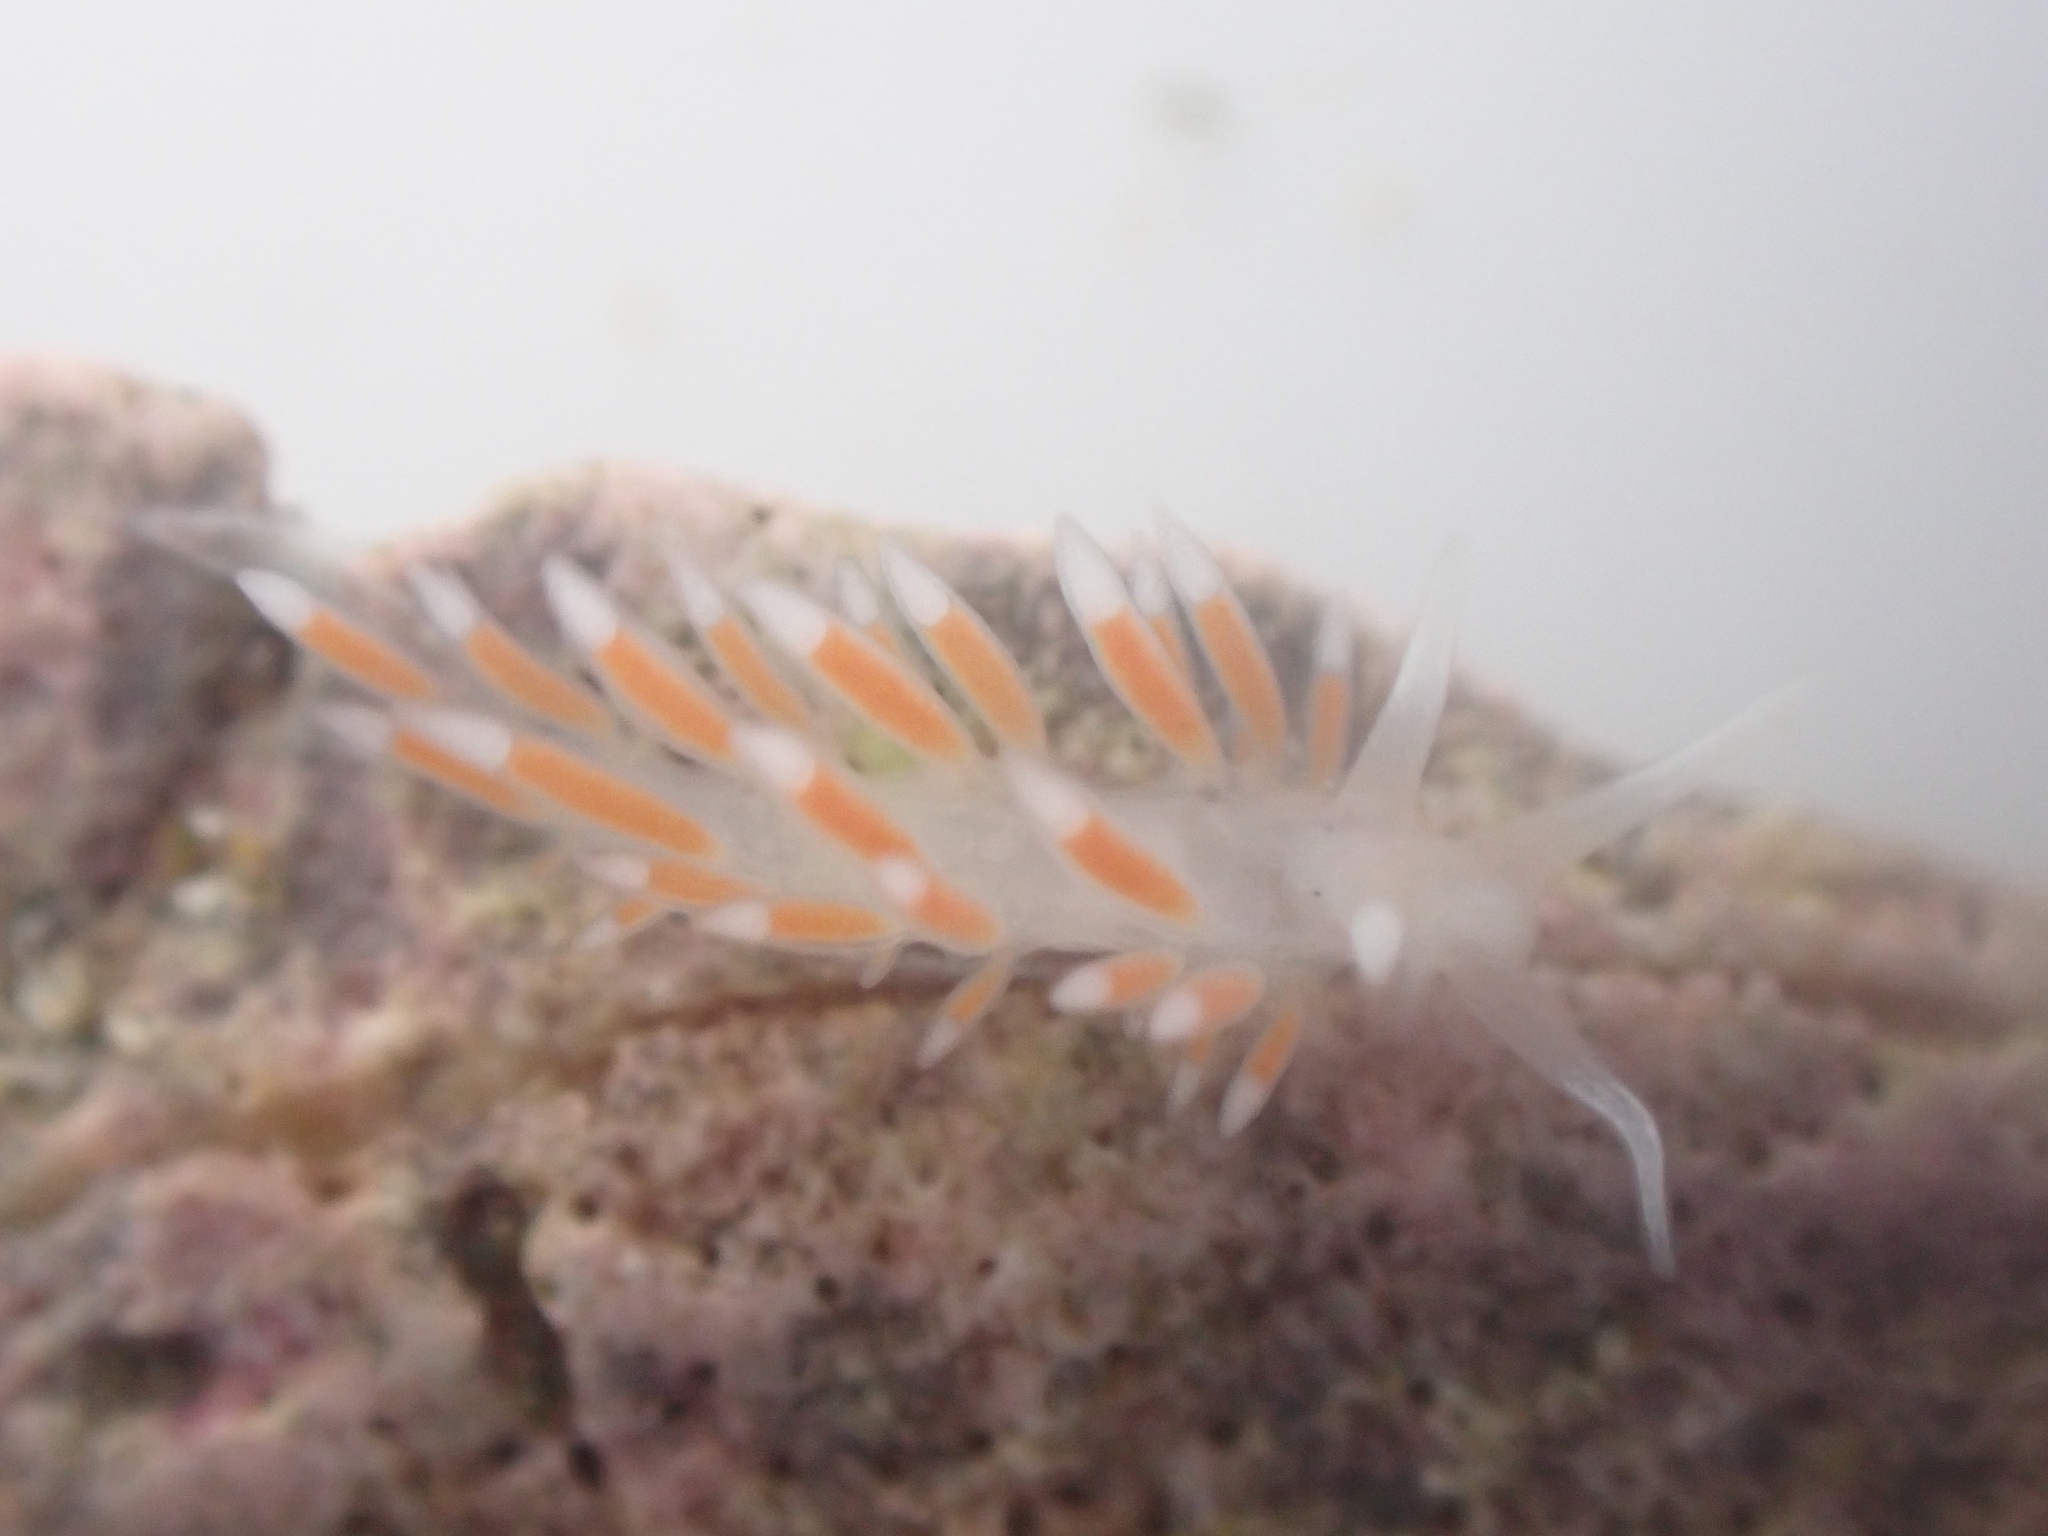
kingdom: Animalia
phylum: Mollusca
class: Gastropoda
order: Nudibranchia
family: Flabellinidae
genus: Coryphellina
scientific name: Coryphellina albomarginata
